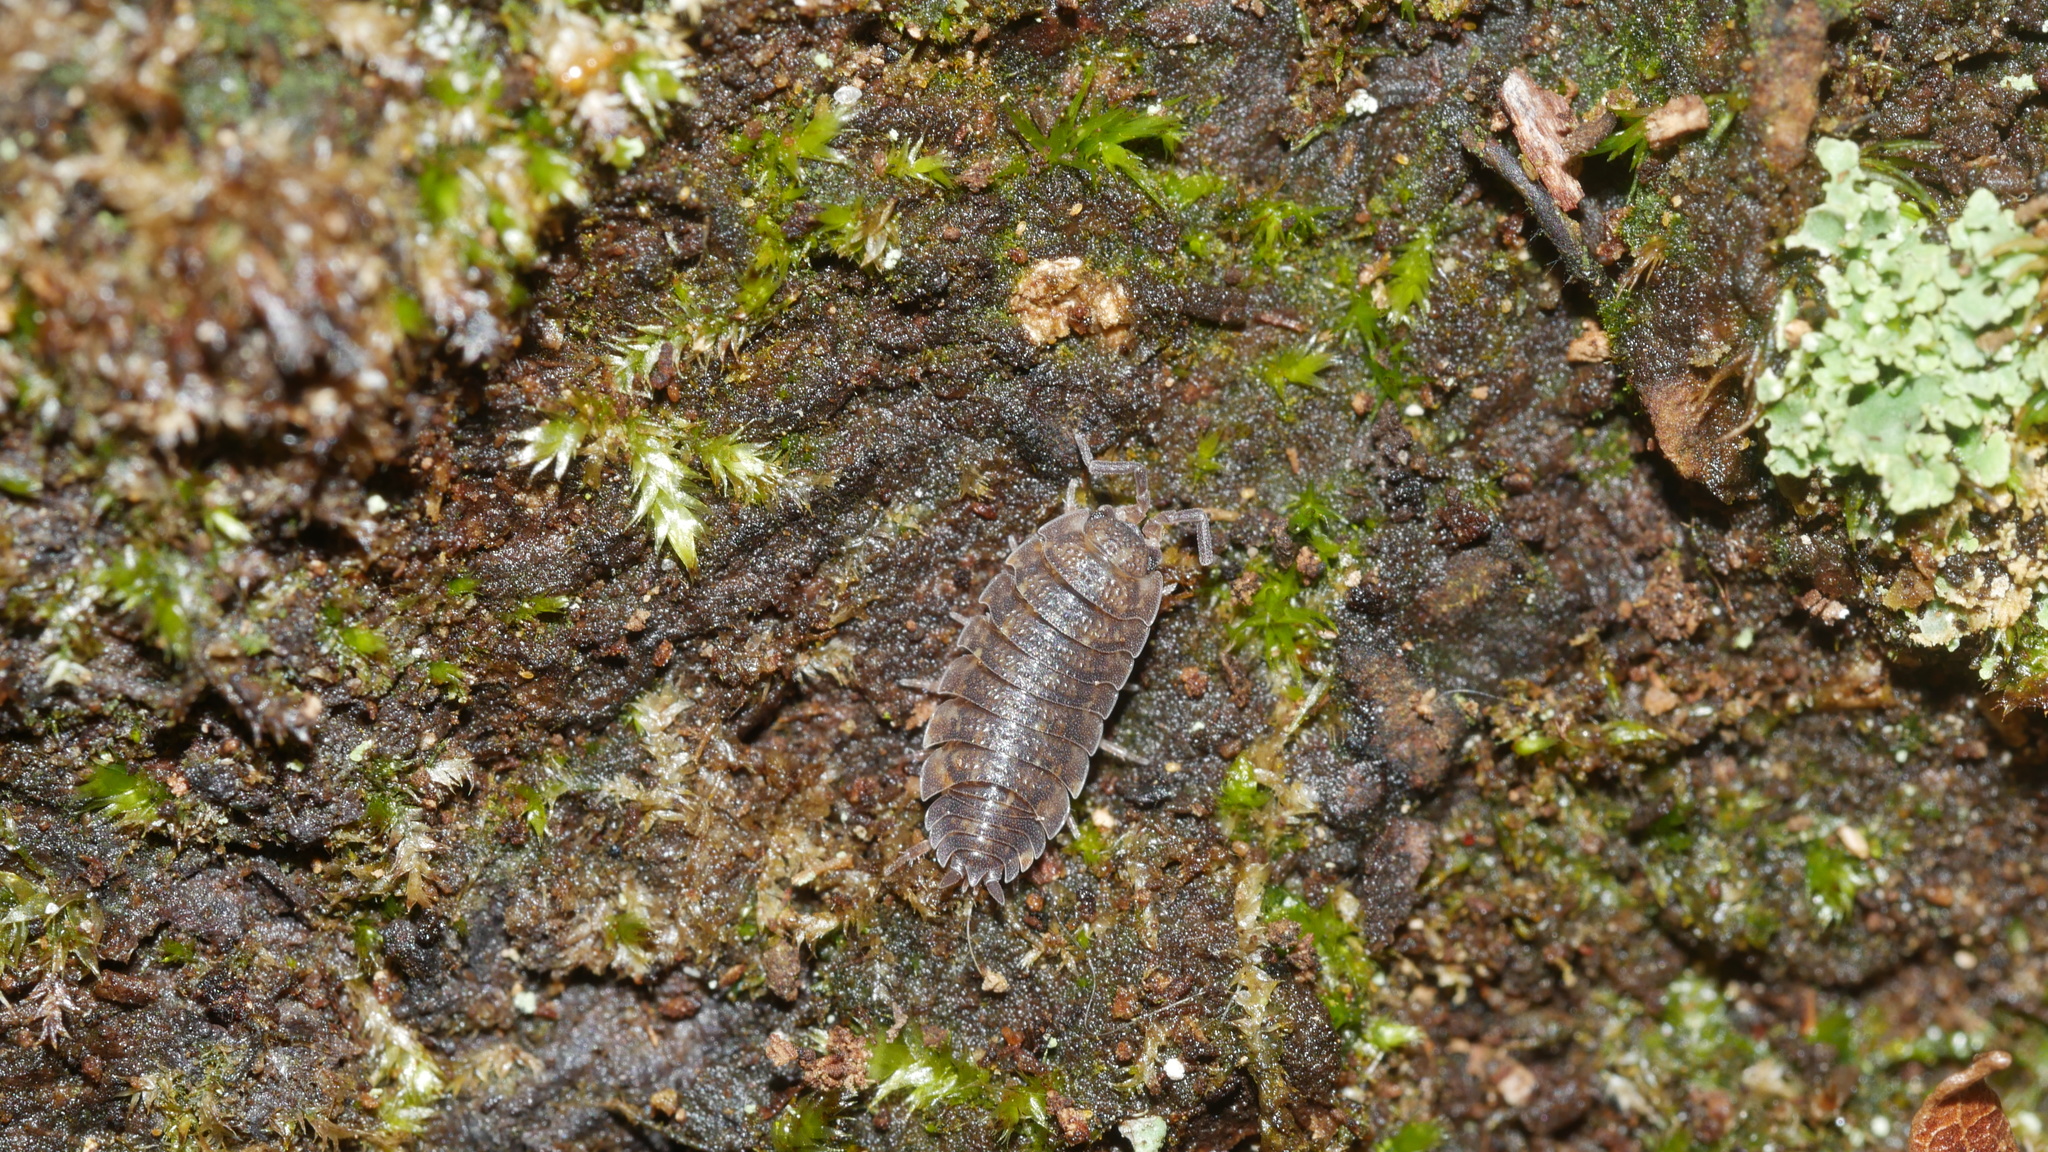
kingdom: Animalia
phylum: Arthropoda
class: Malacostraca
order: Isopoda
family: Porcellionidae
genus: Porcellio
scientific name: Porcellio scaber
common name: Common rough woodlouse
